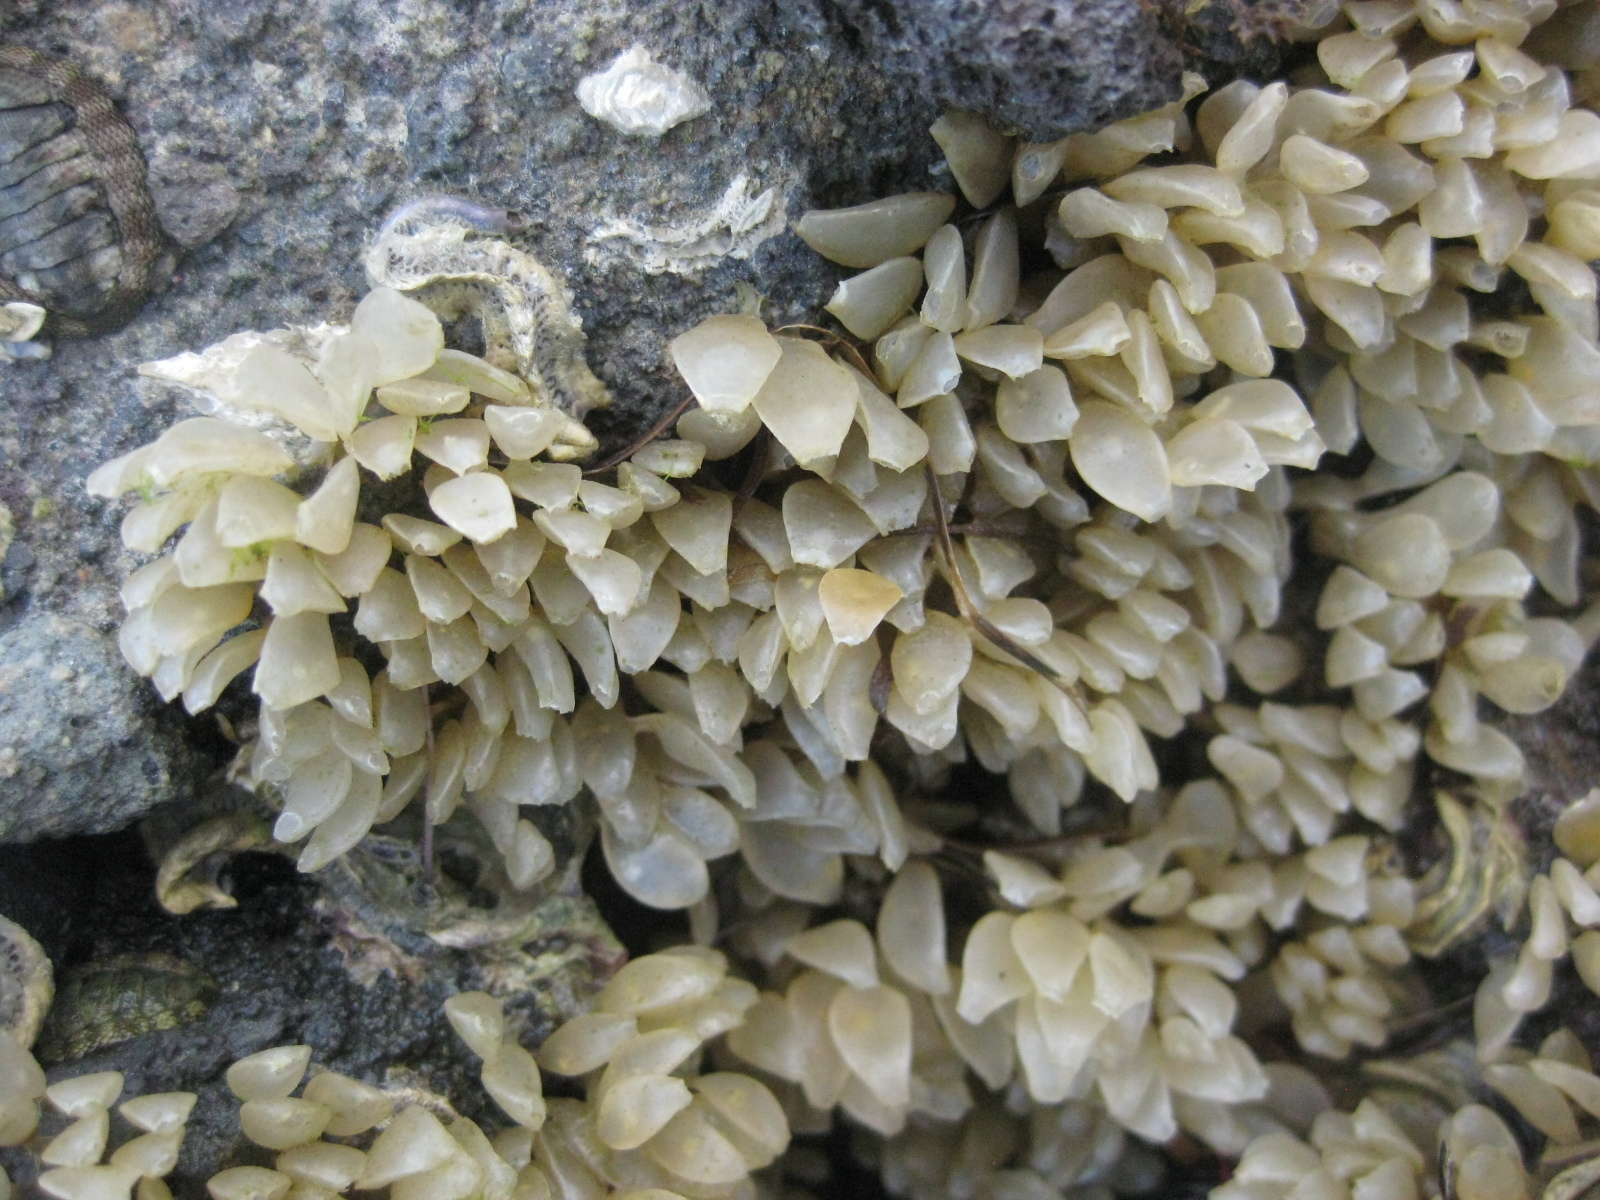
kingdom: Animalia
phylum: Mollusca
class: Gastropoda
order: Neogastropoda
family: Cominellidae
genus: Cominella
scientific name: Cominella adspersa
